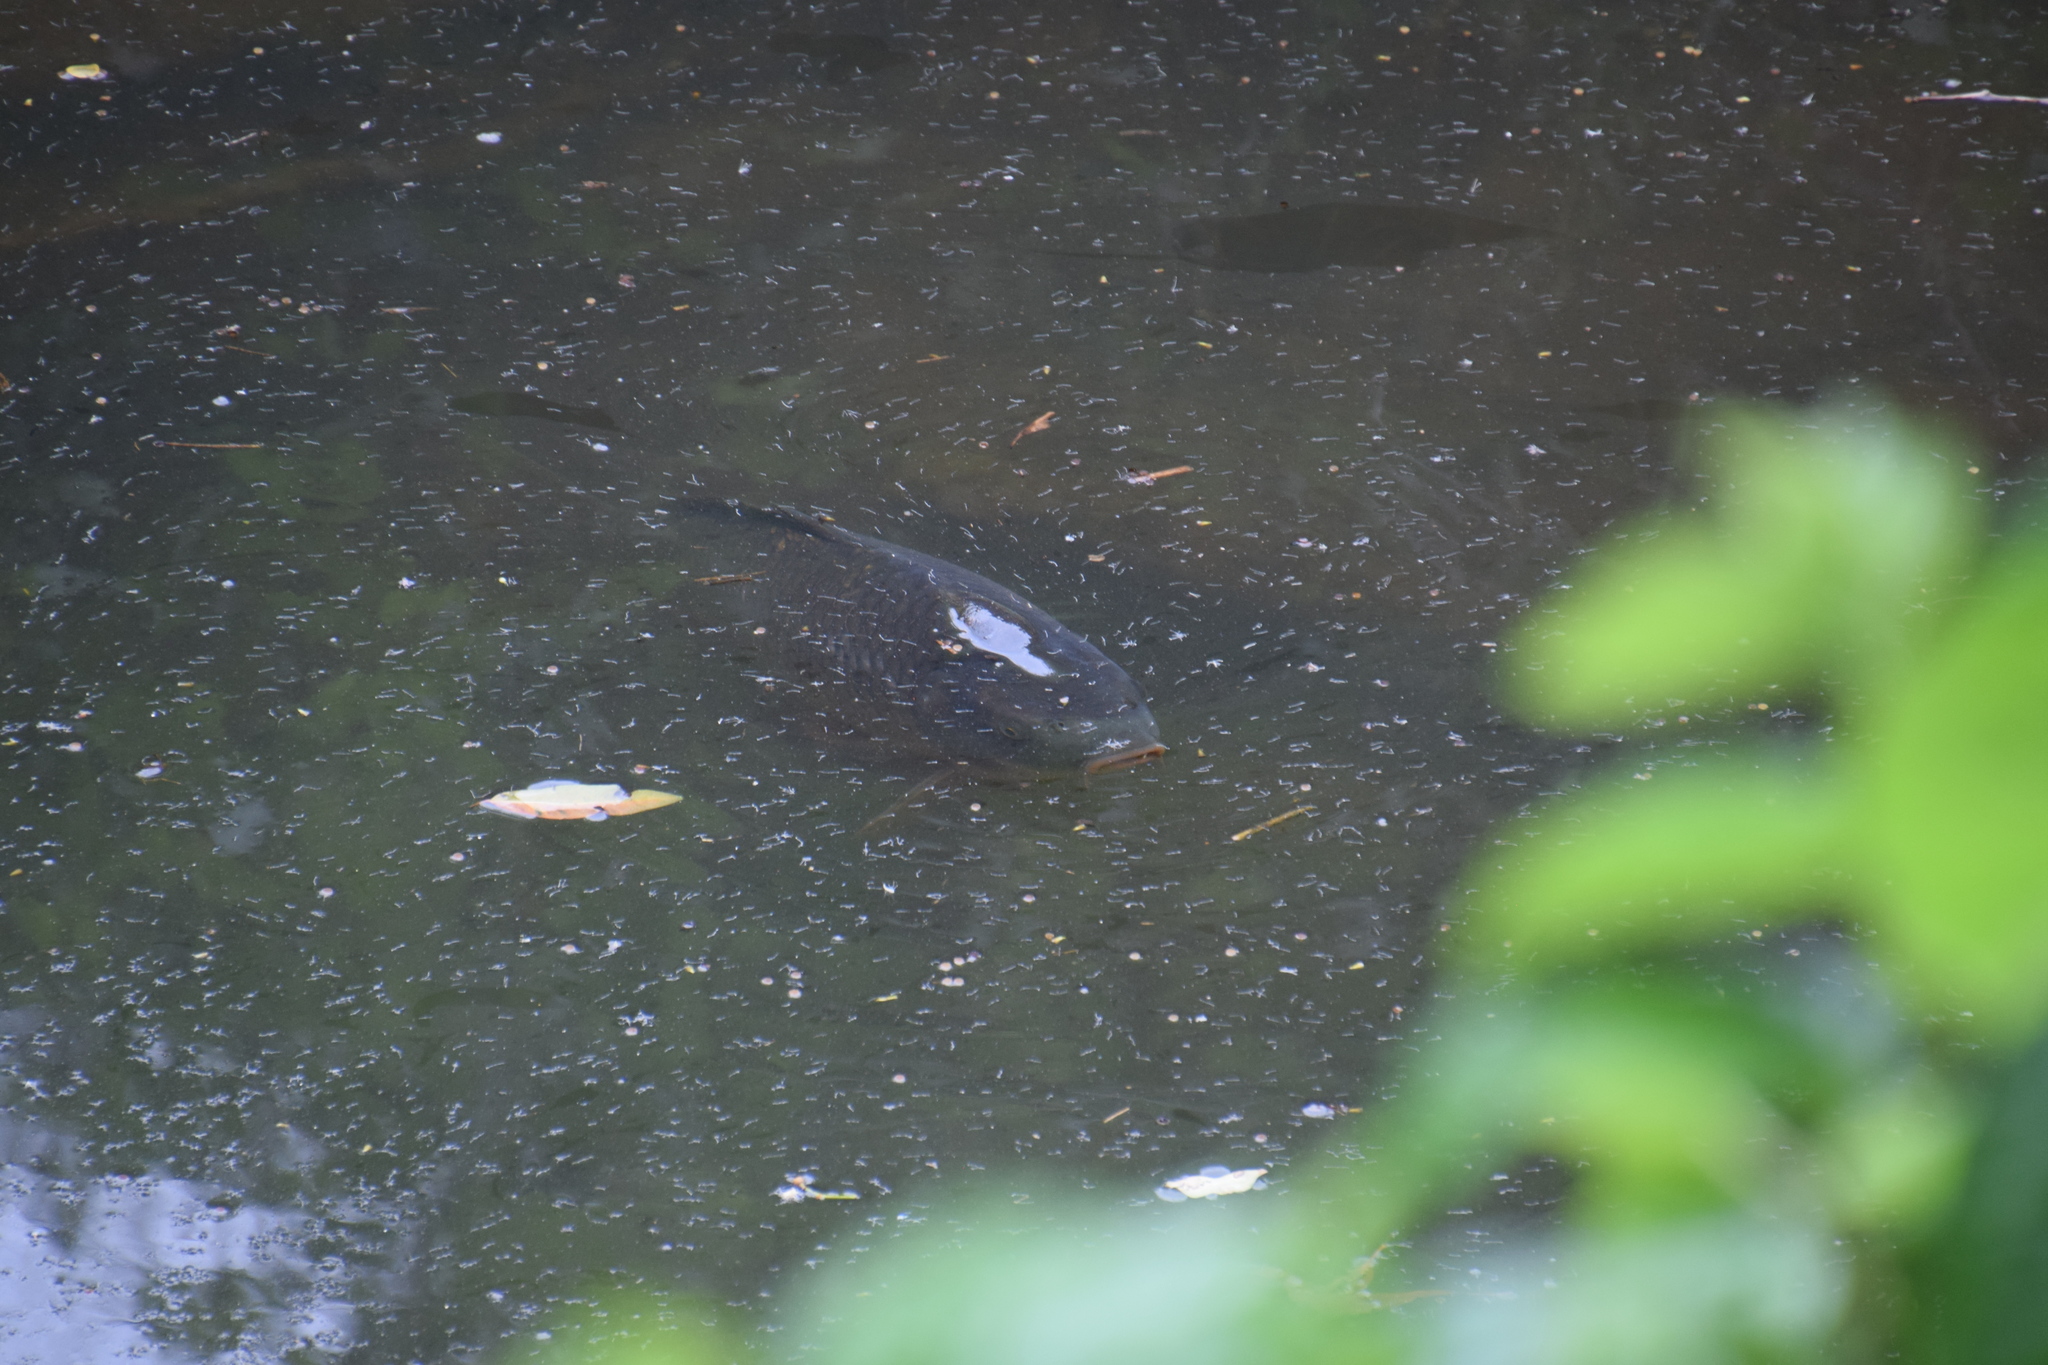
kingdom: Animalia
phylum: Chordata
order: Cypriniformes
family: Cyprinidae
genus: Cyprinus
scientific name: Cyprinus carpio
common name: Common carp
